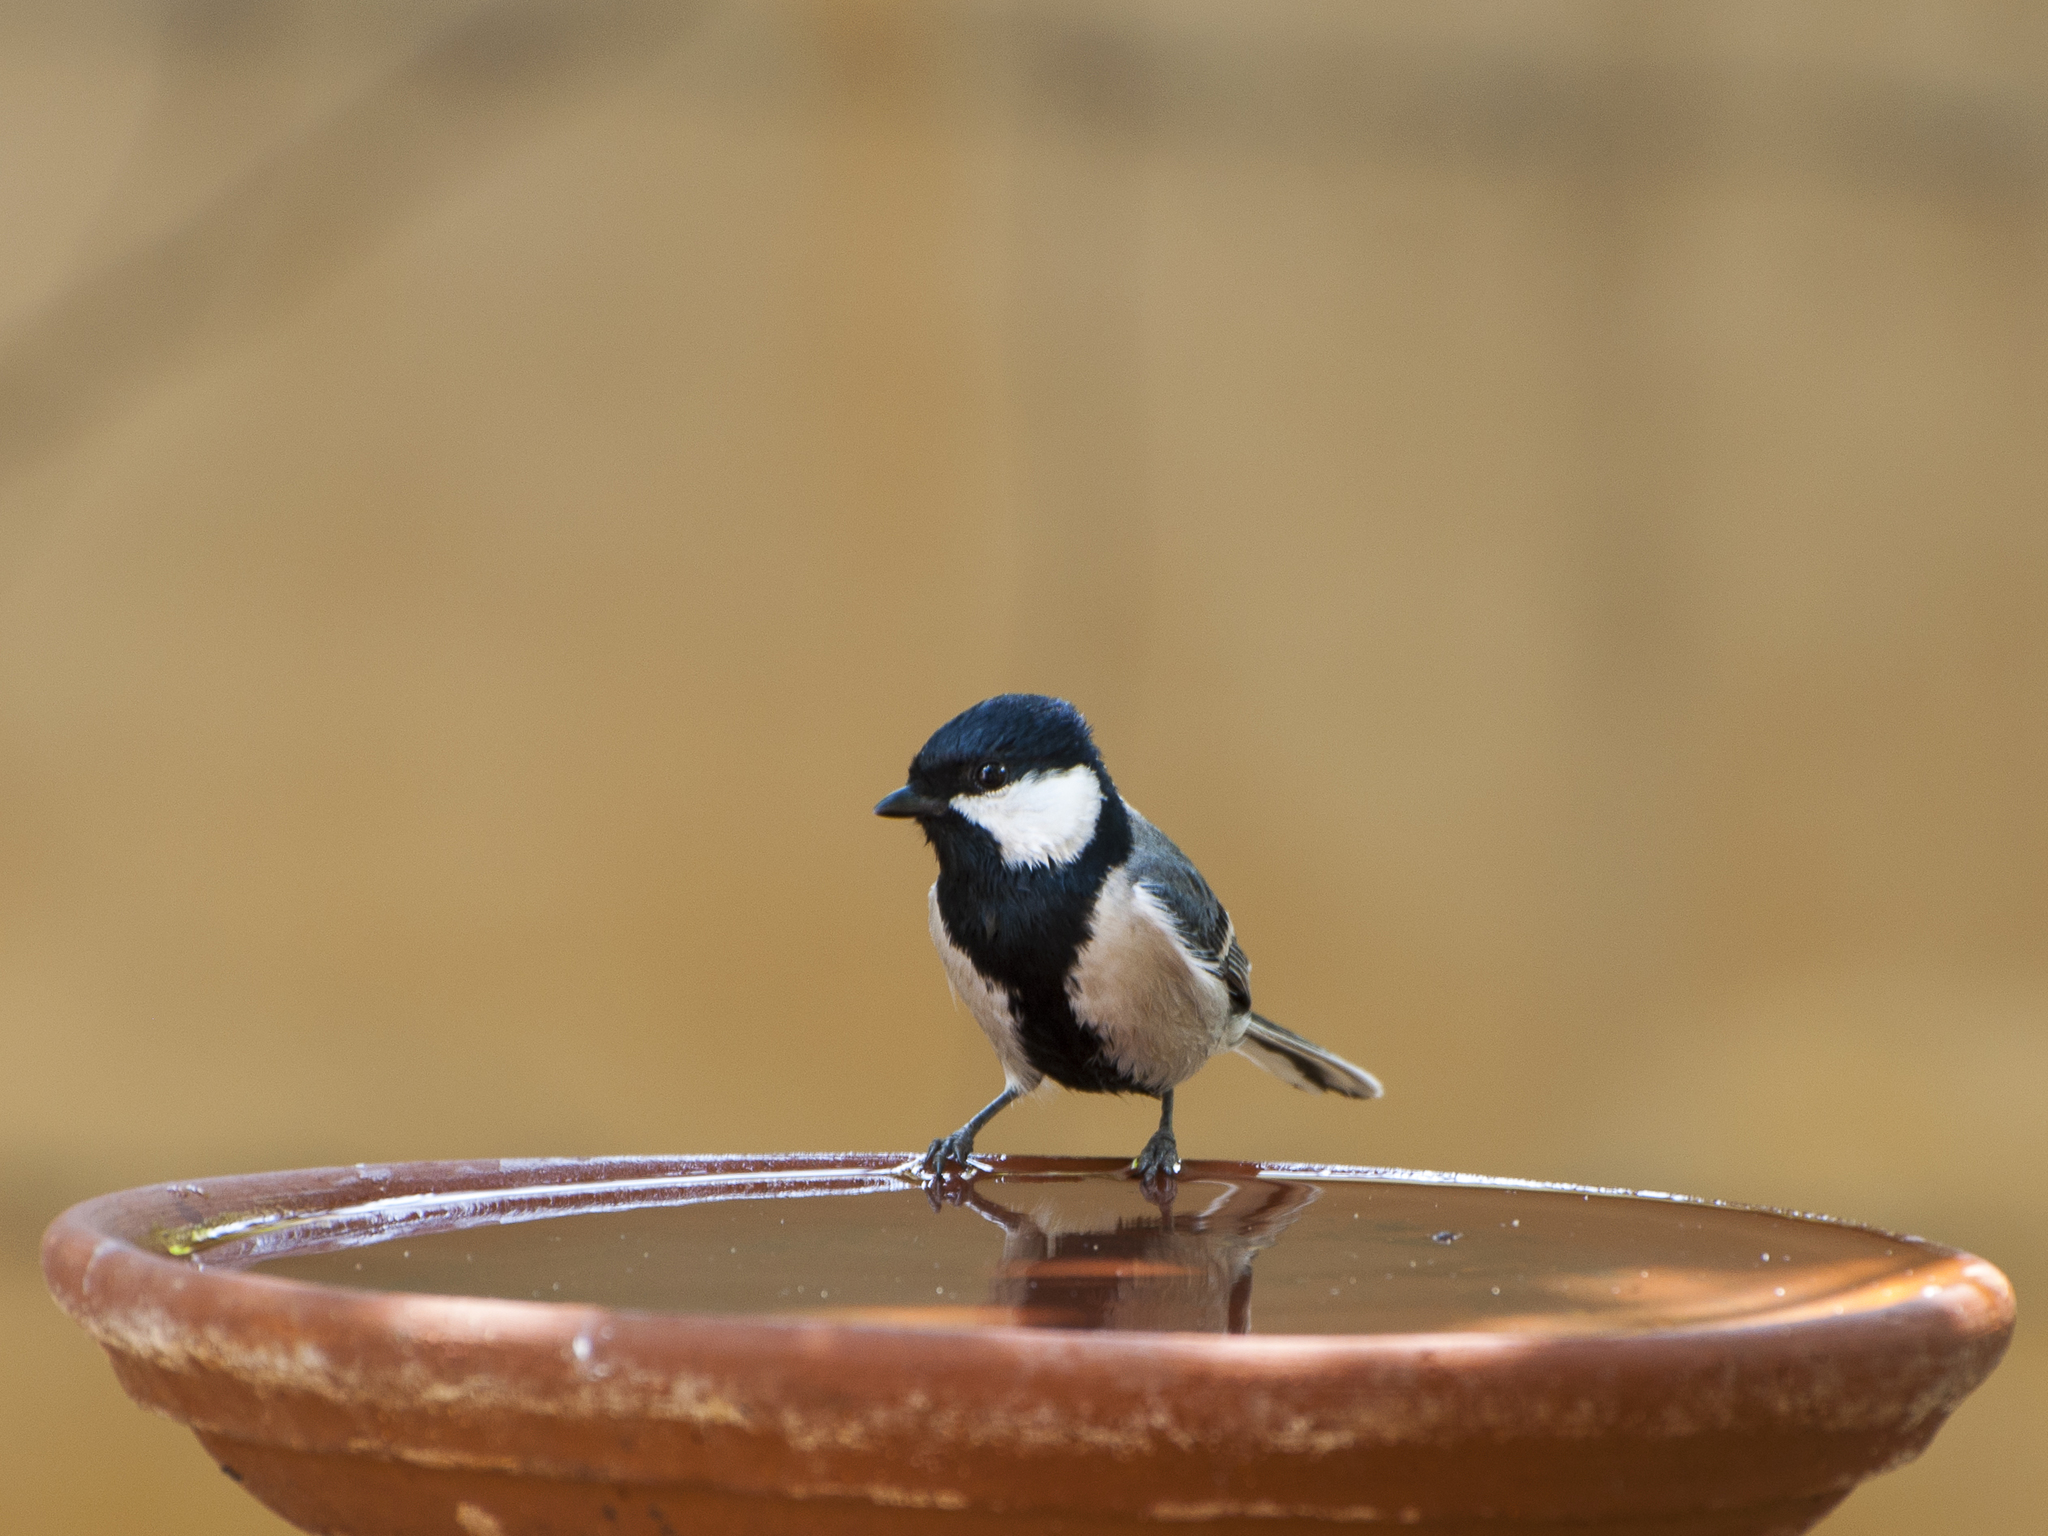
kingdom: Animalia
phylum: Chordata
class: Aves
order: Passeriformes
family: Paridae
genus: Parus
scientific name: Parus cinereus
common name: Cinereous tit
